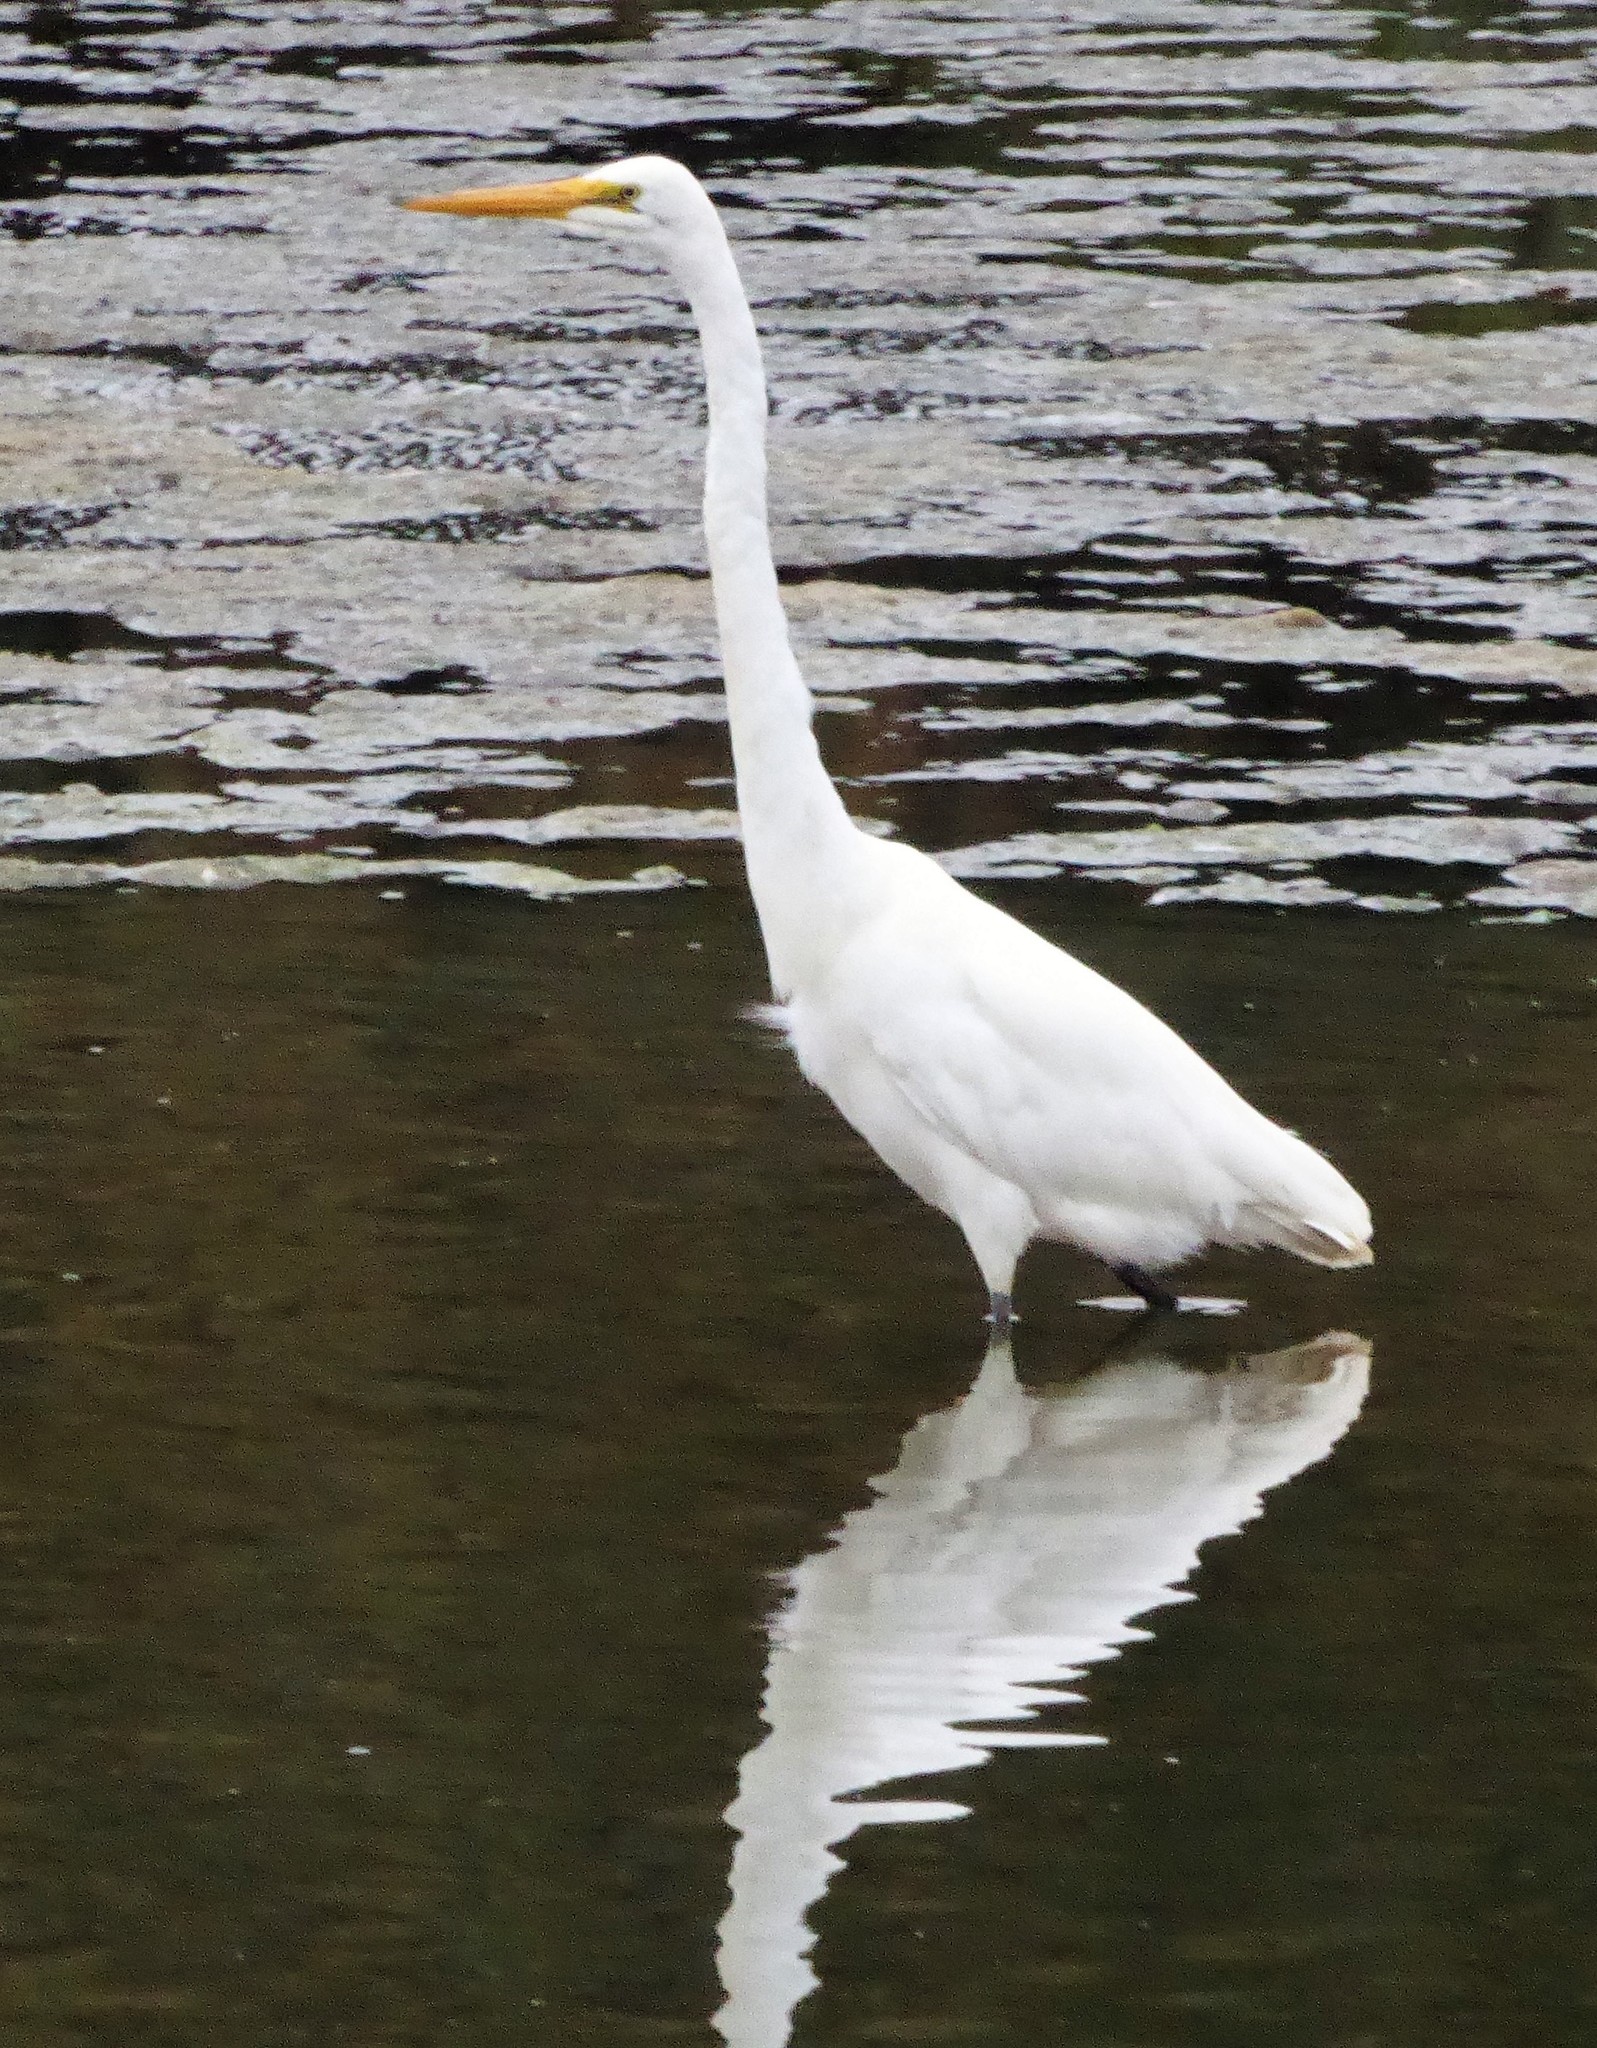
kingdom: Animalia
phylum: Chordata
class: Aves
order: Pelecaniformes
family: Ardeidae
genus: Ardea
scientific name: Ardea modesta
